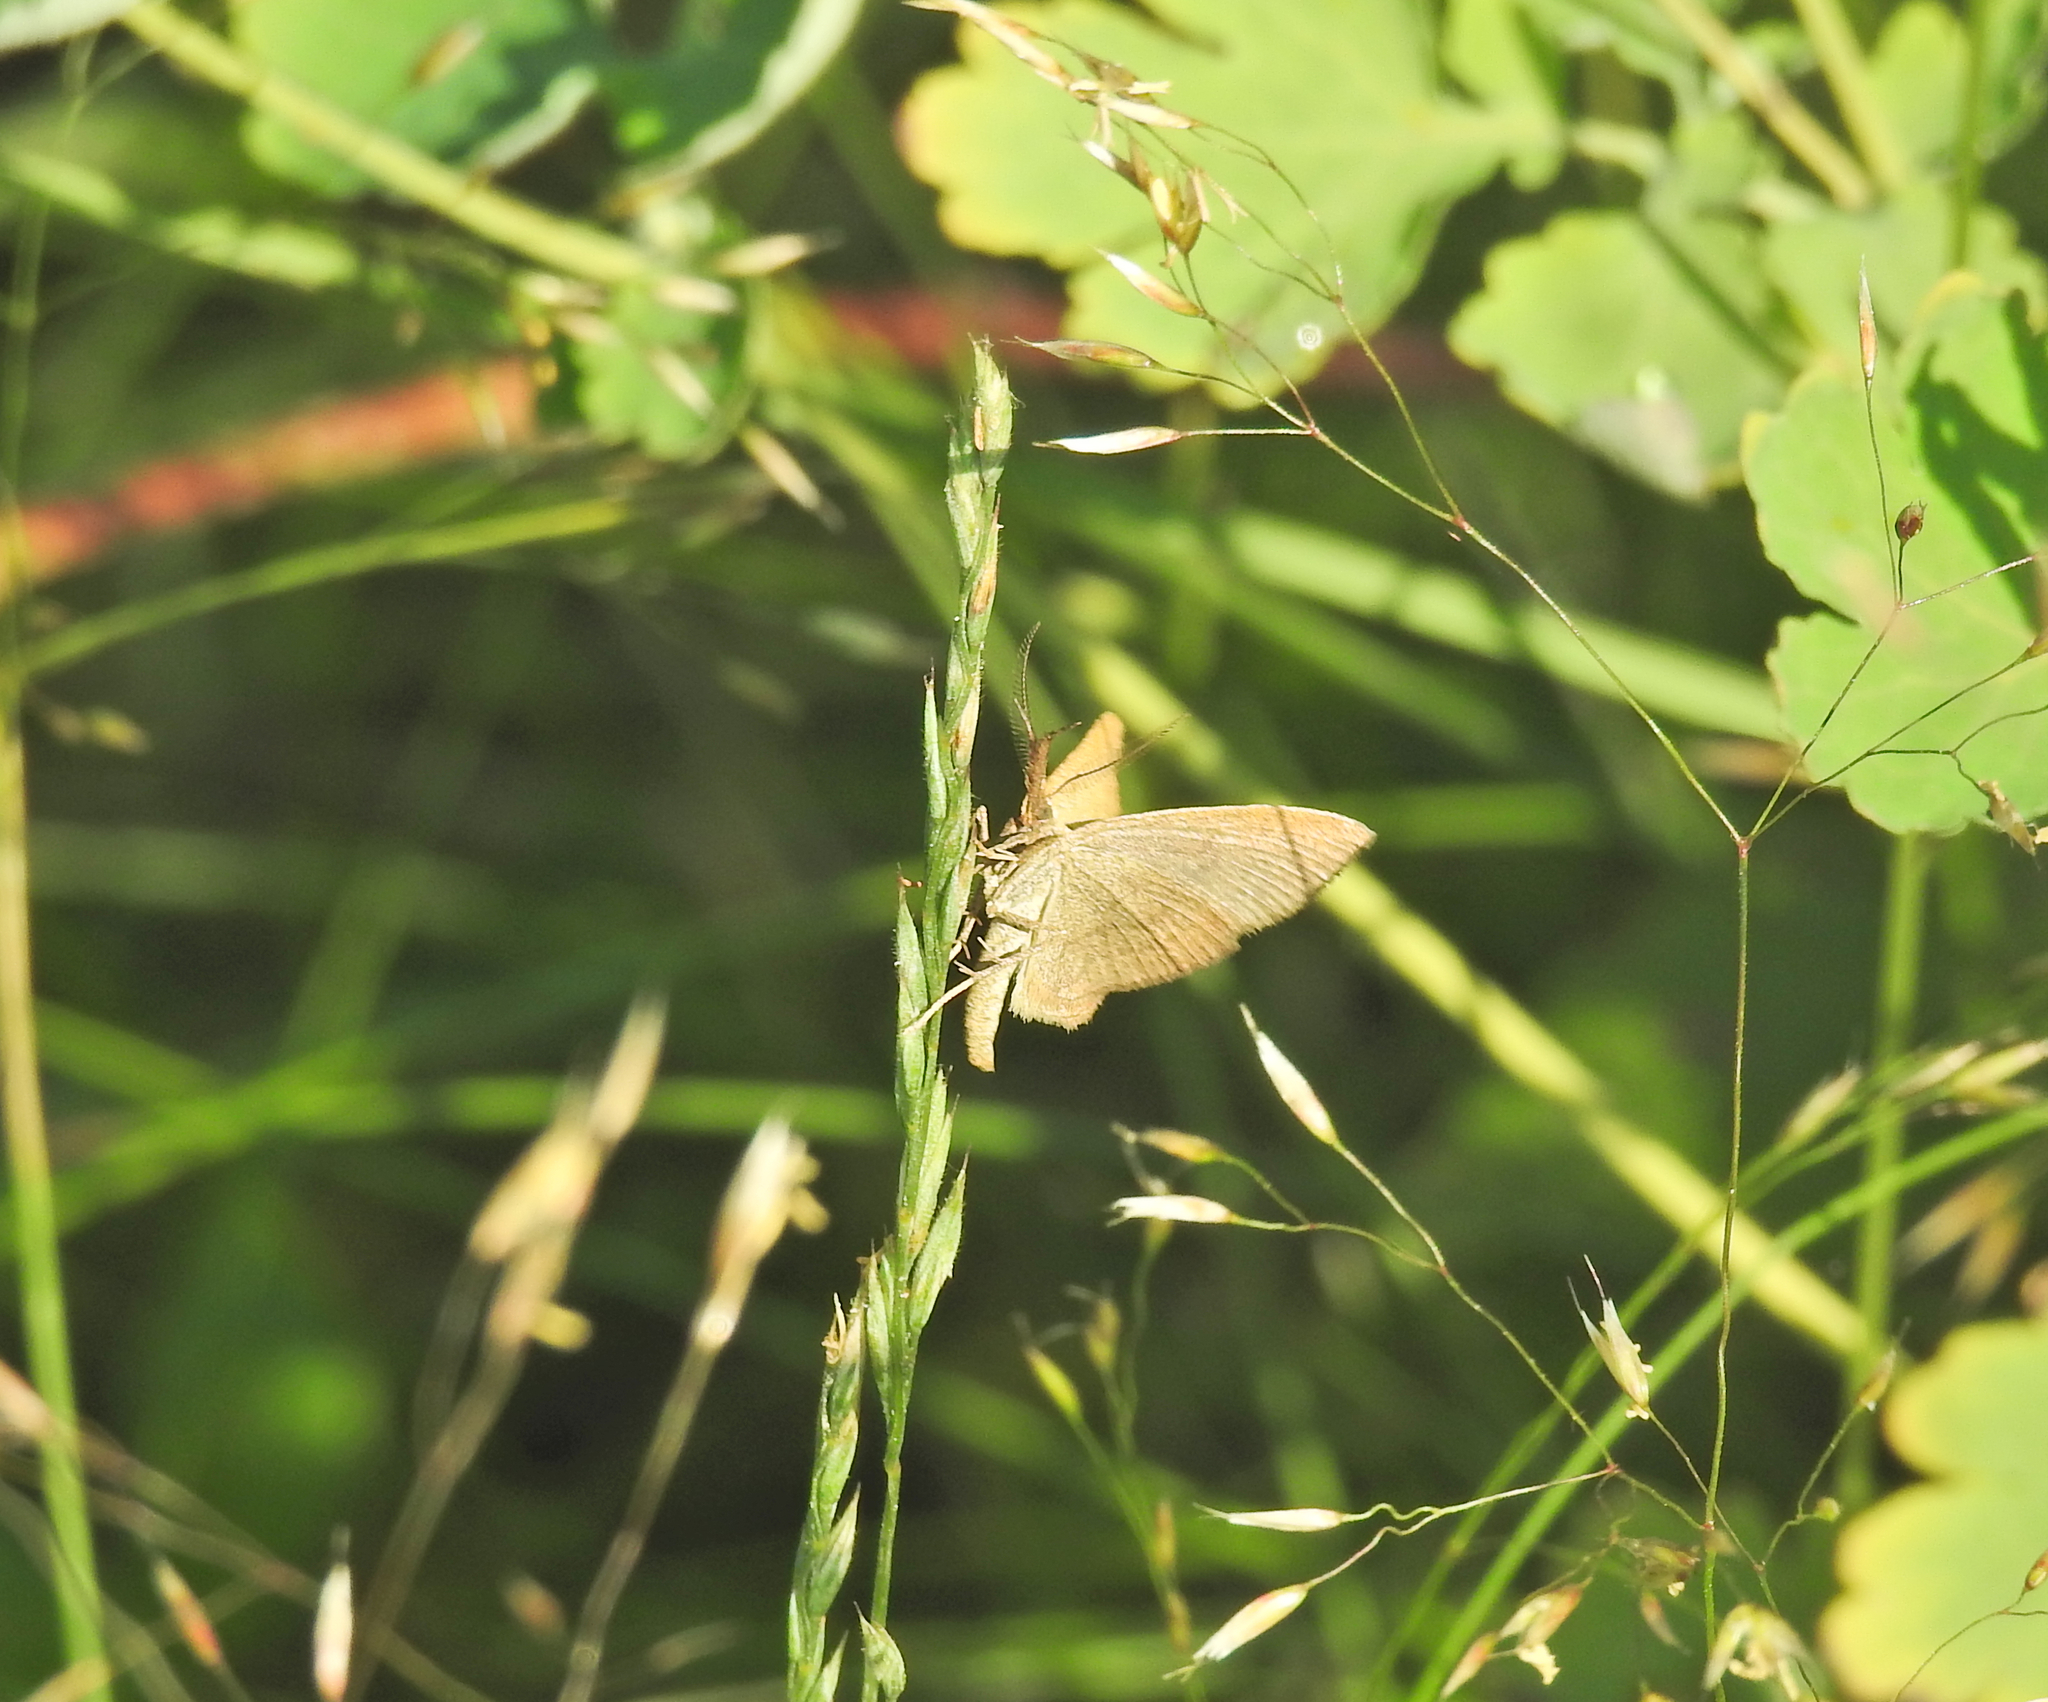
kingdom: Animalia
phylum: Arthropoda
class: Insecta
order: Lepidoptera
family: Erebidae
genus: Polypogon
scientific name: Polypogon tentacularia
